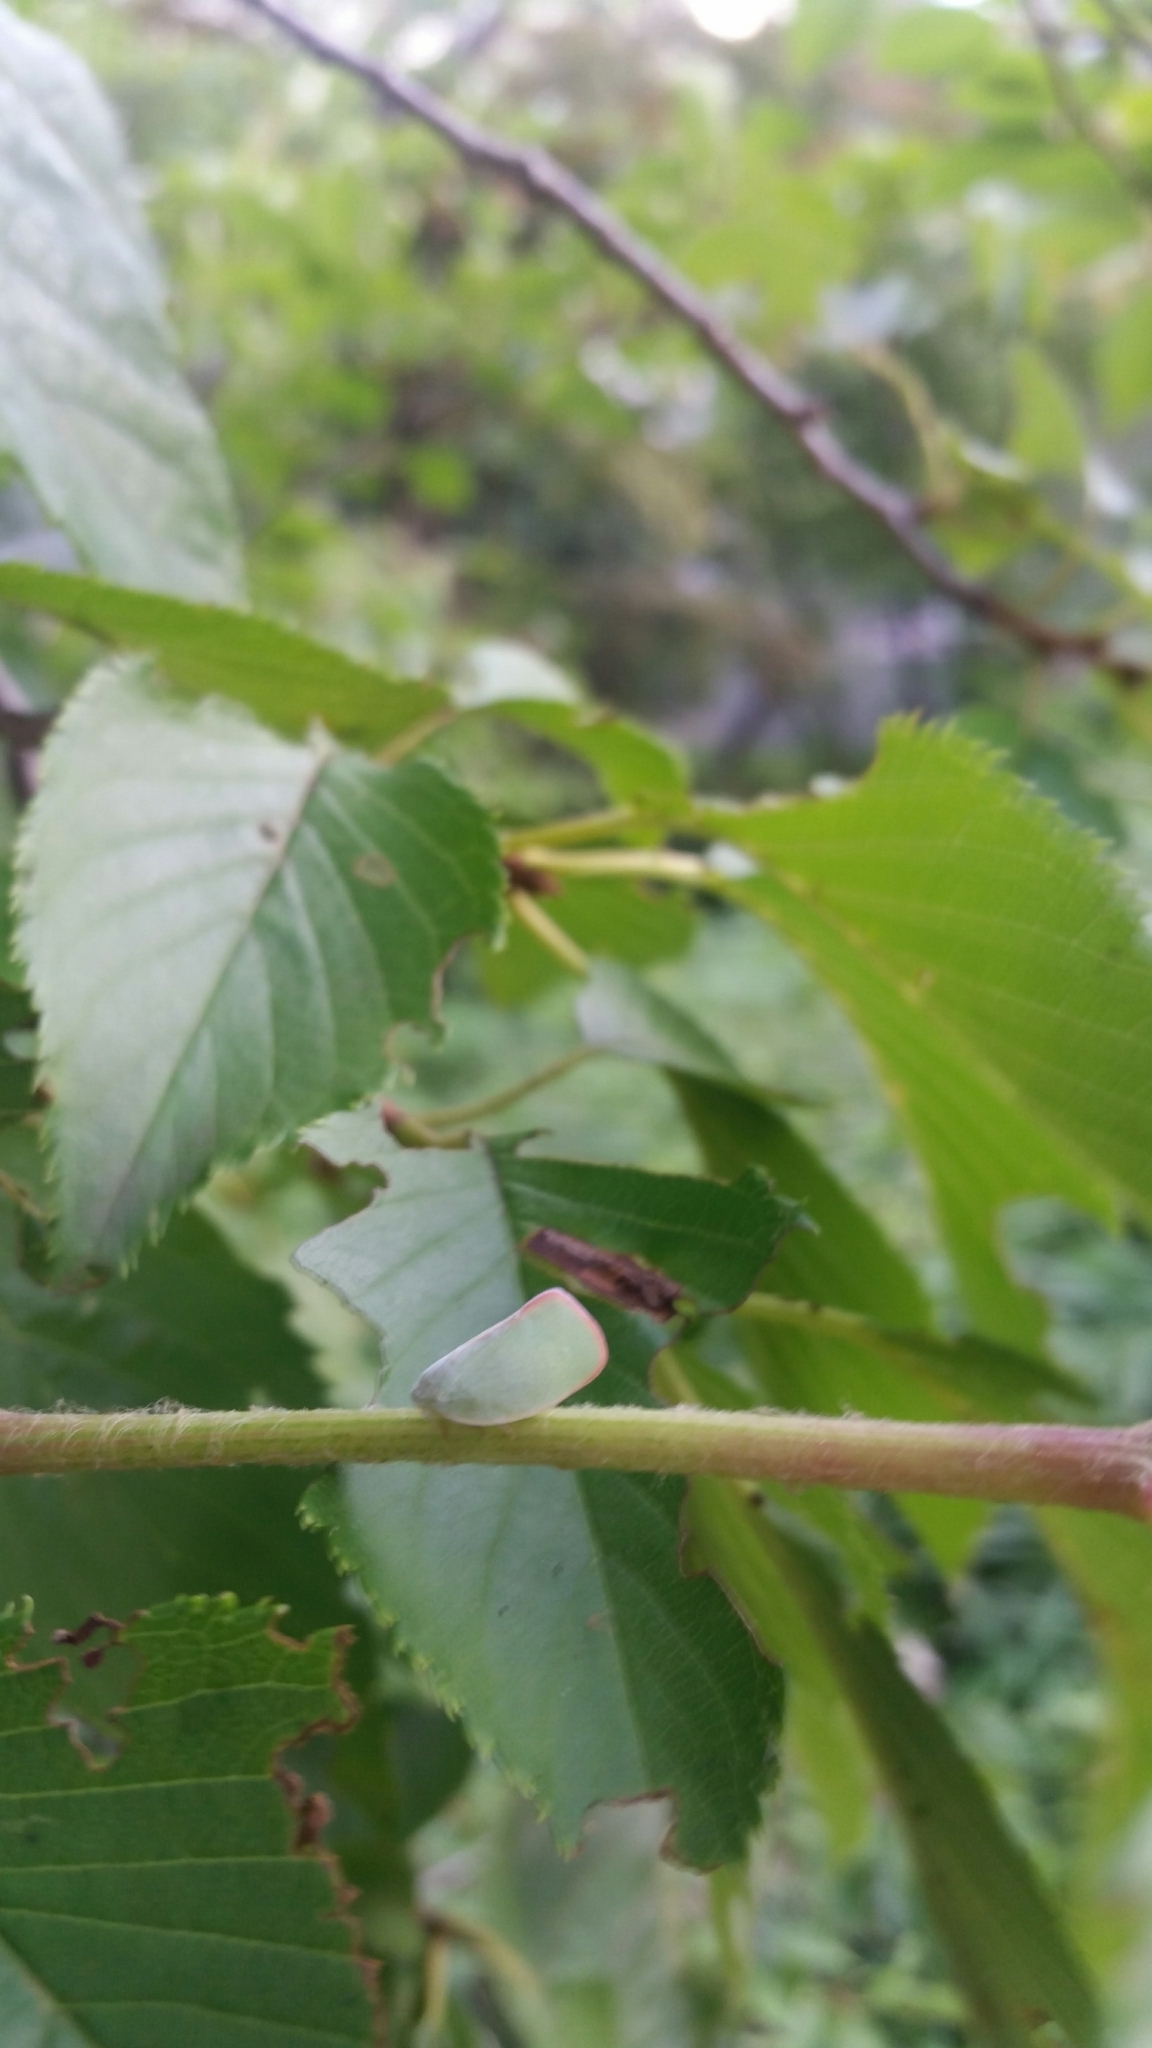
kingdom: Animalia
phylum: Arthropoda
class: Insecta
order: Hemiptera
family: Flatidae
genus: Geisha
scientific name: Geisha distinctissima
